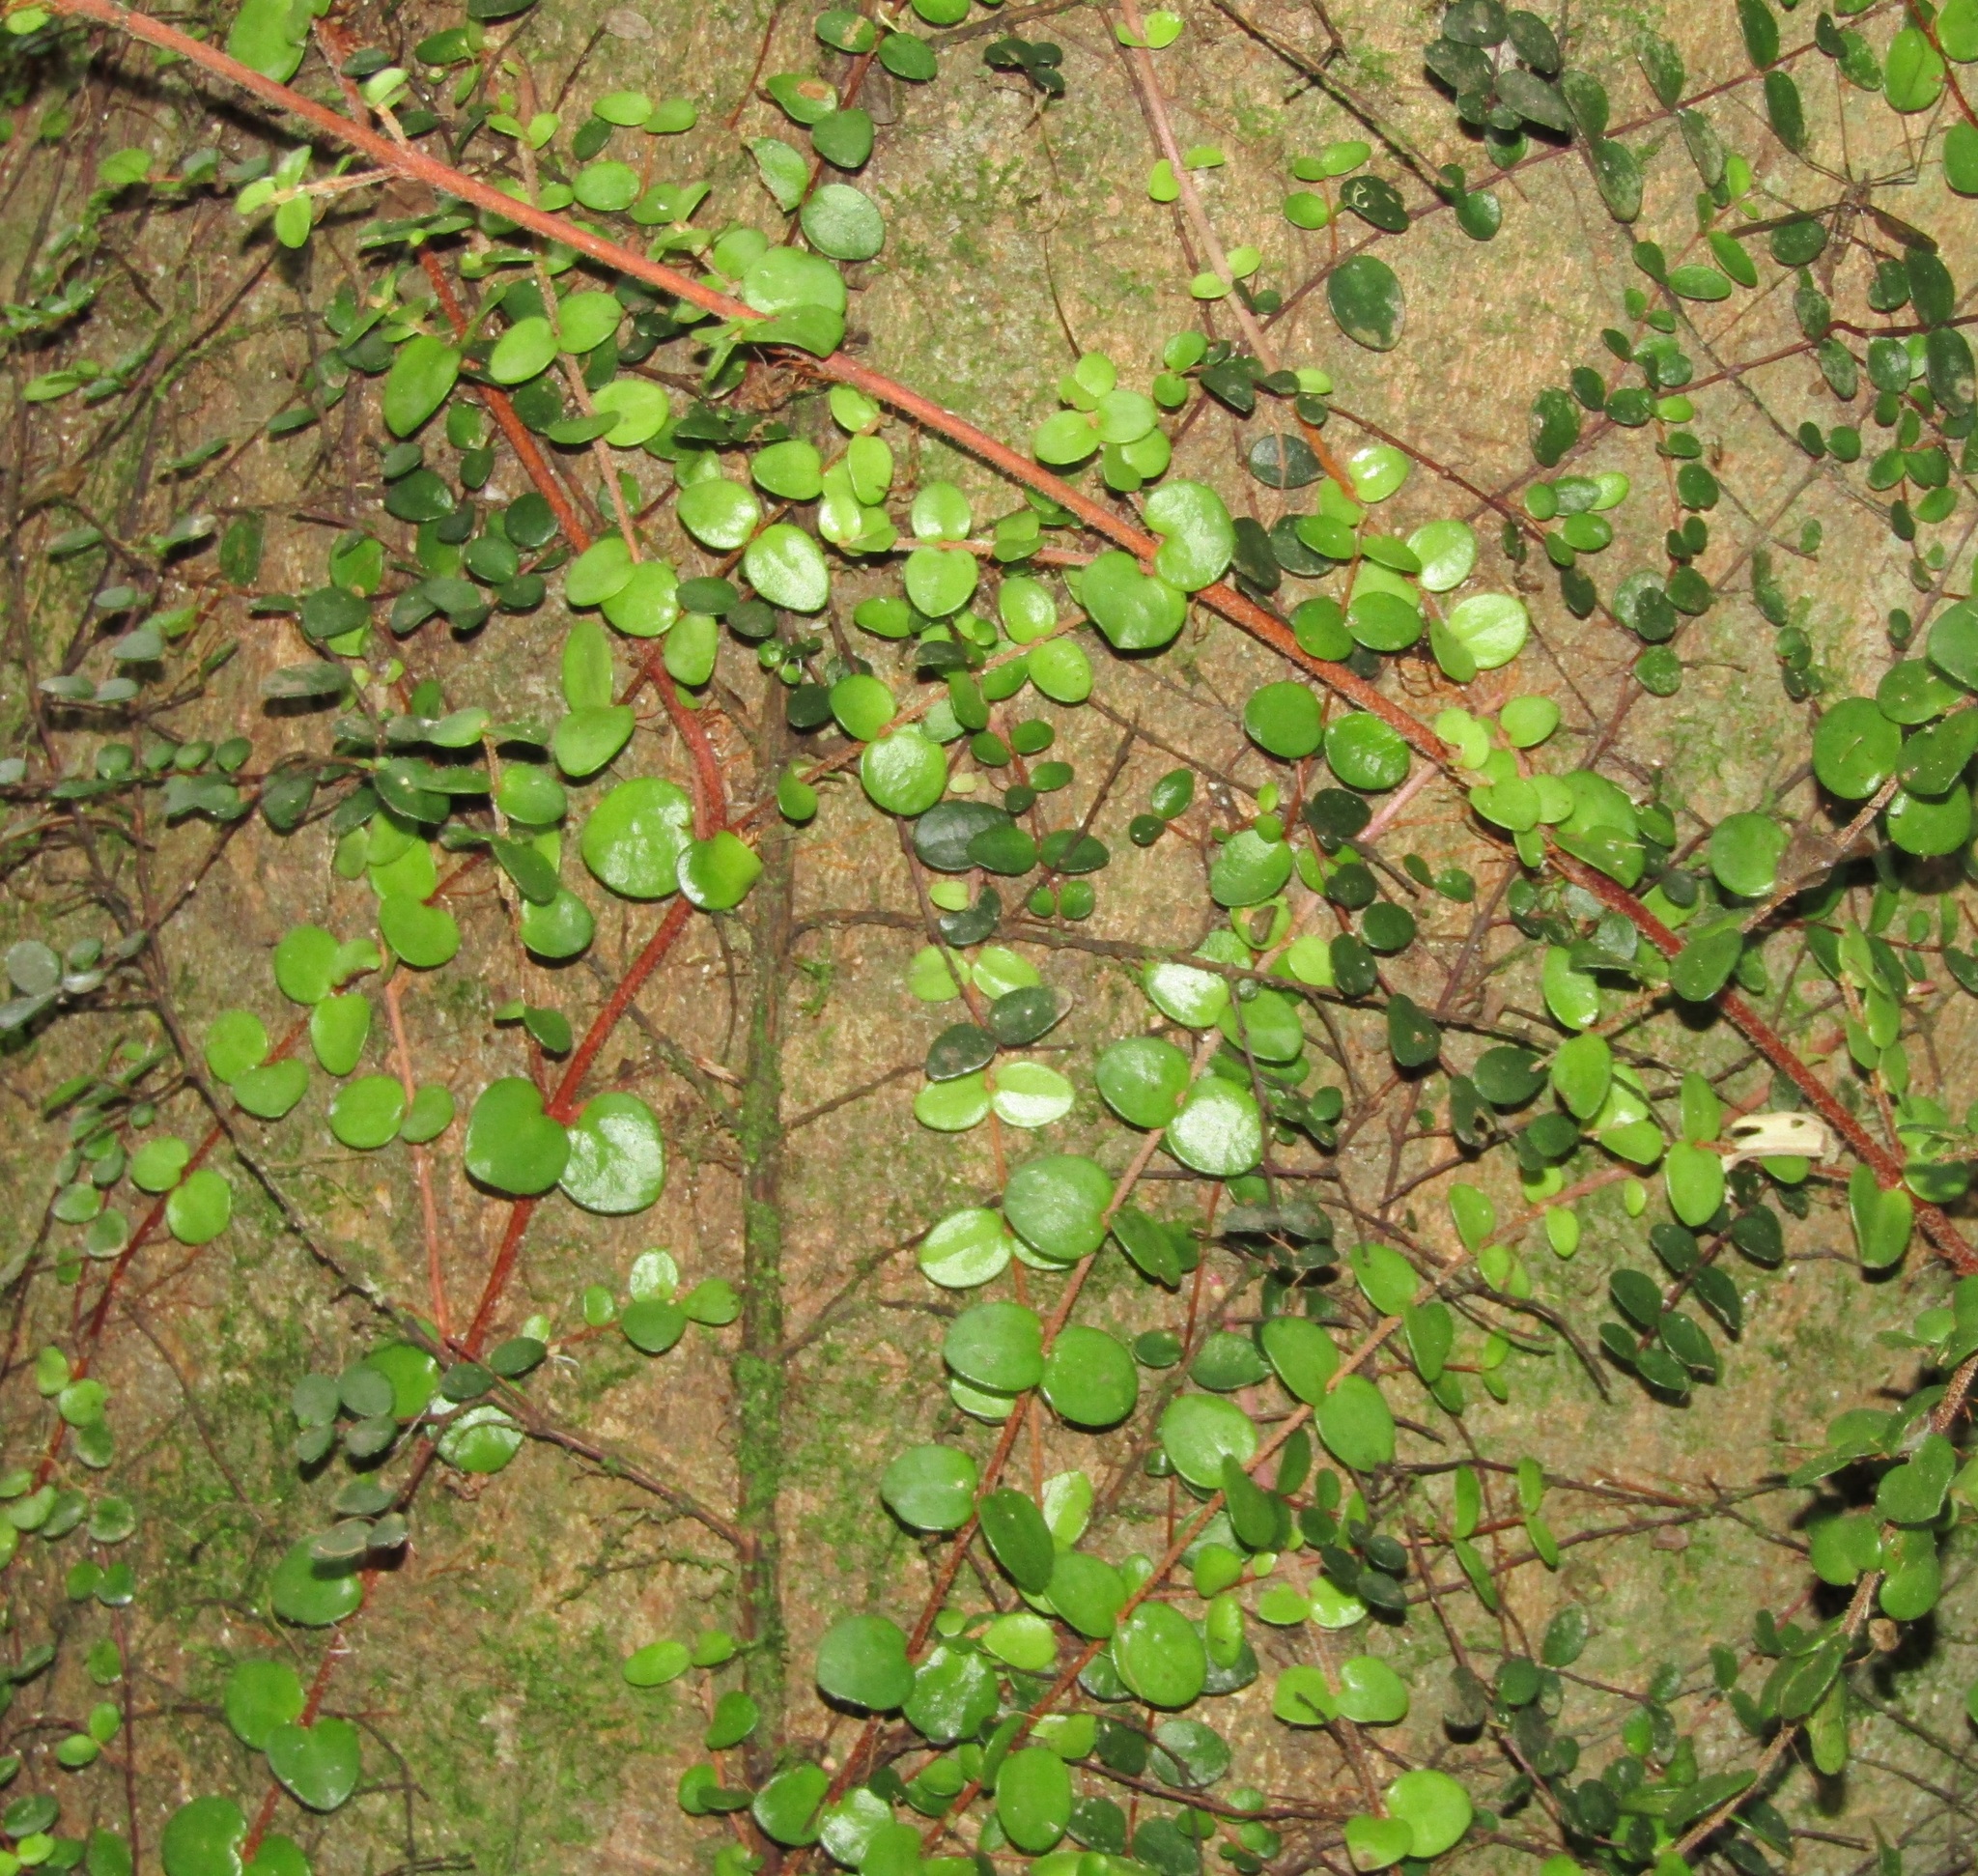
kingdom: Plantae
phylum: Tracheophyta
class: Magnoliopsida
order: Myrtales
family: Myrtaceae
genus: Metrosideros
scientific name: Metrosideros perforata
